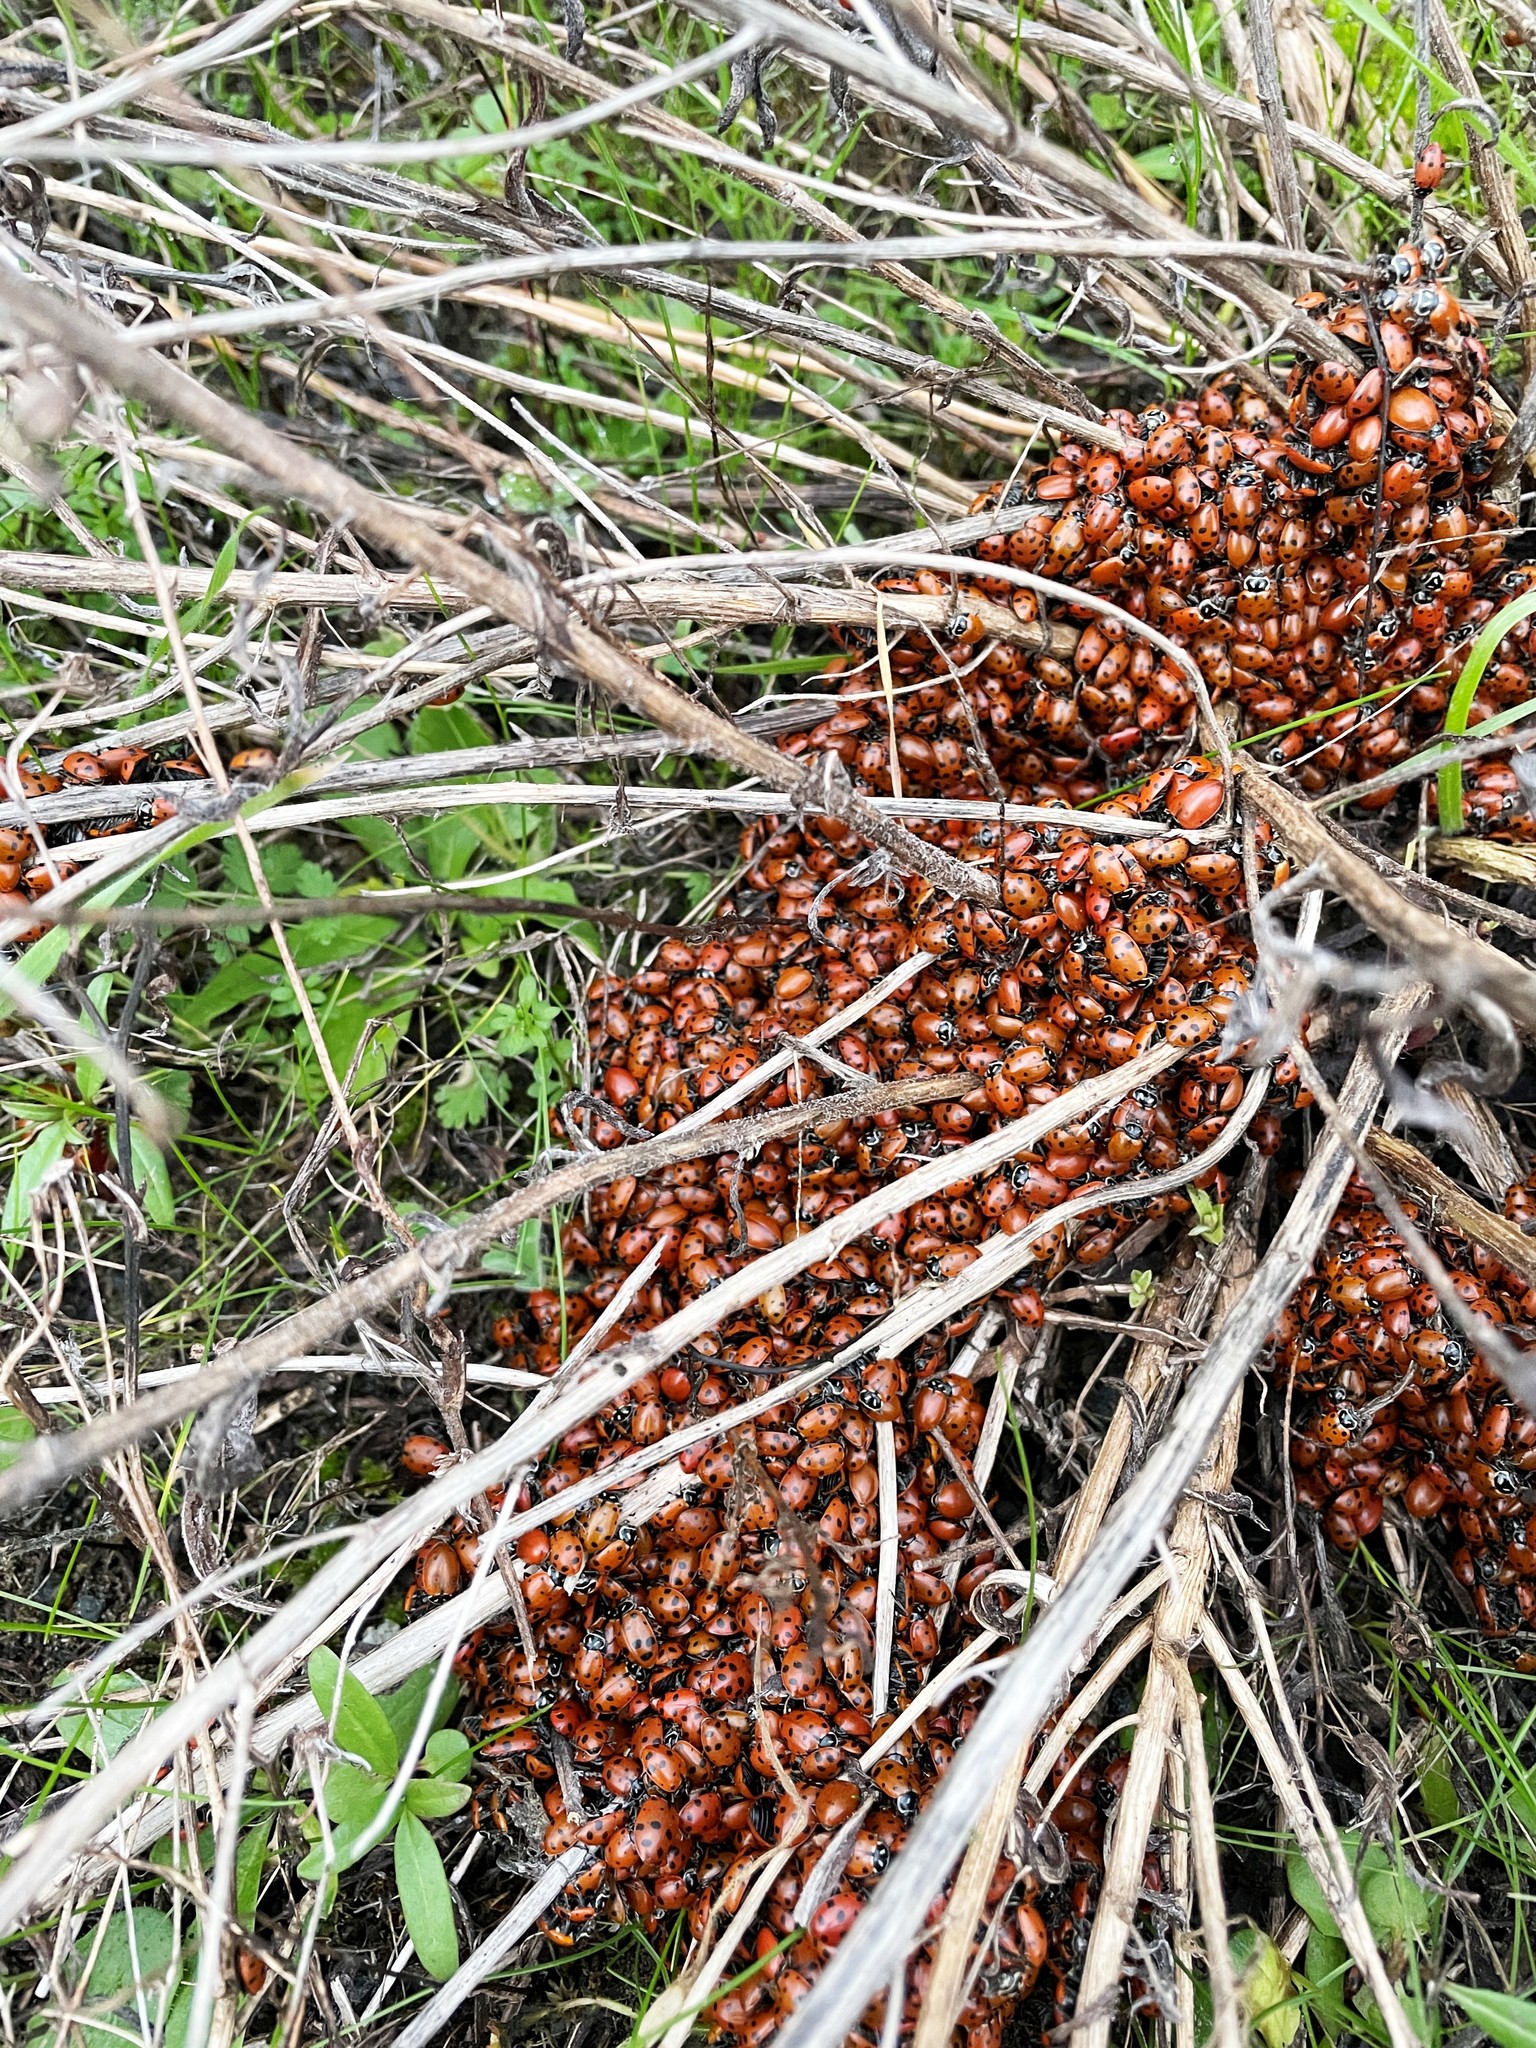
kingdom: Animalia
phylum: Arthropoda
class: Insecta
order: Coleoptera
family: Coccinellidae
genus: Hippodamia
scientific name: Hippodamia convergens
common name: Convergent lady beetle
